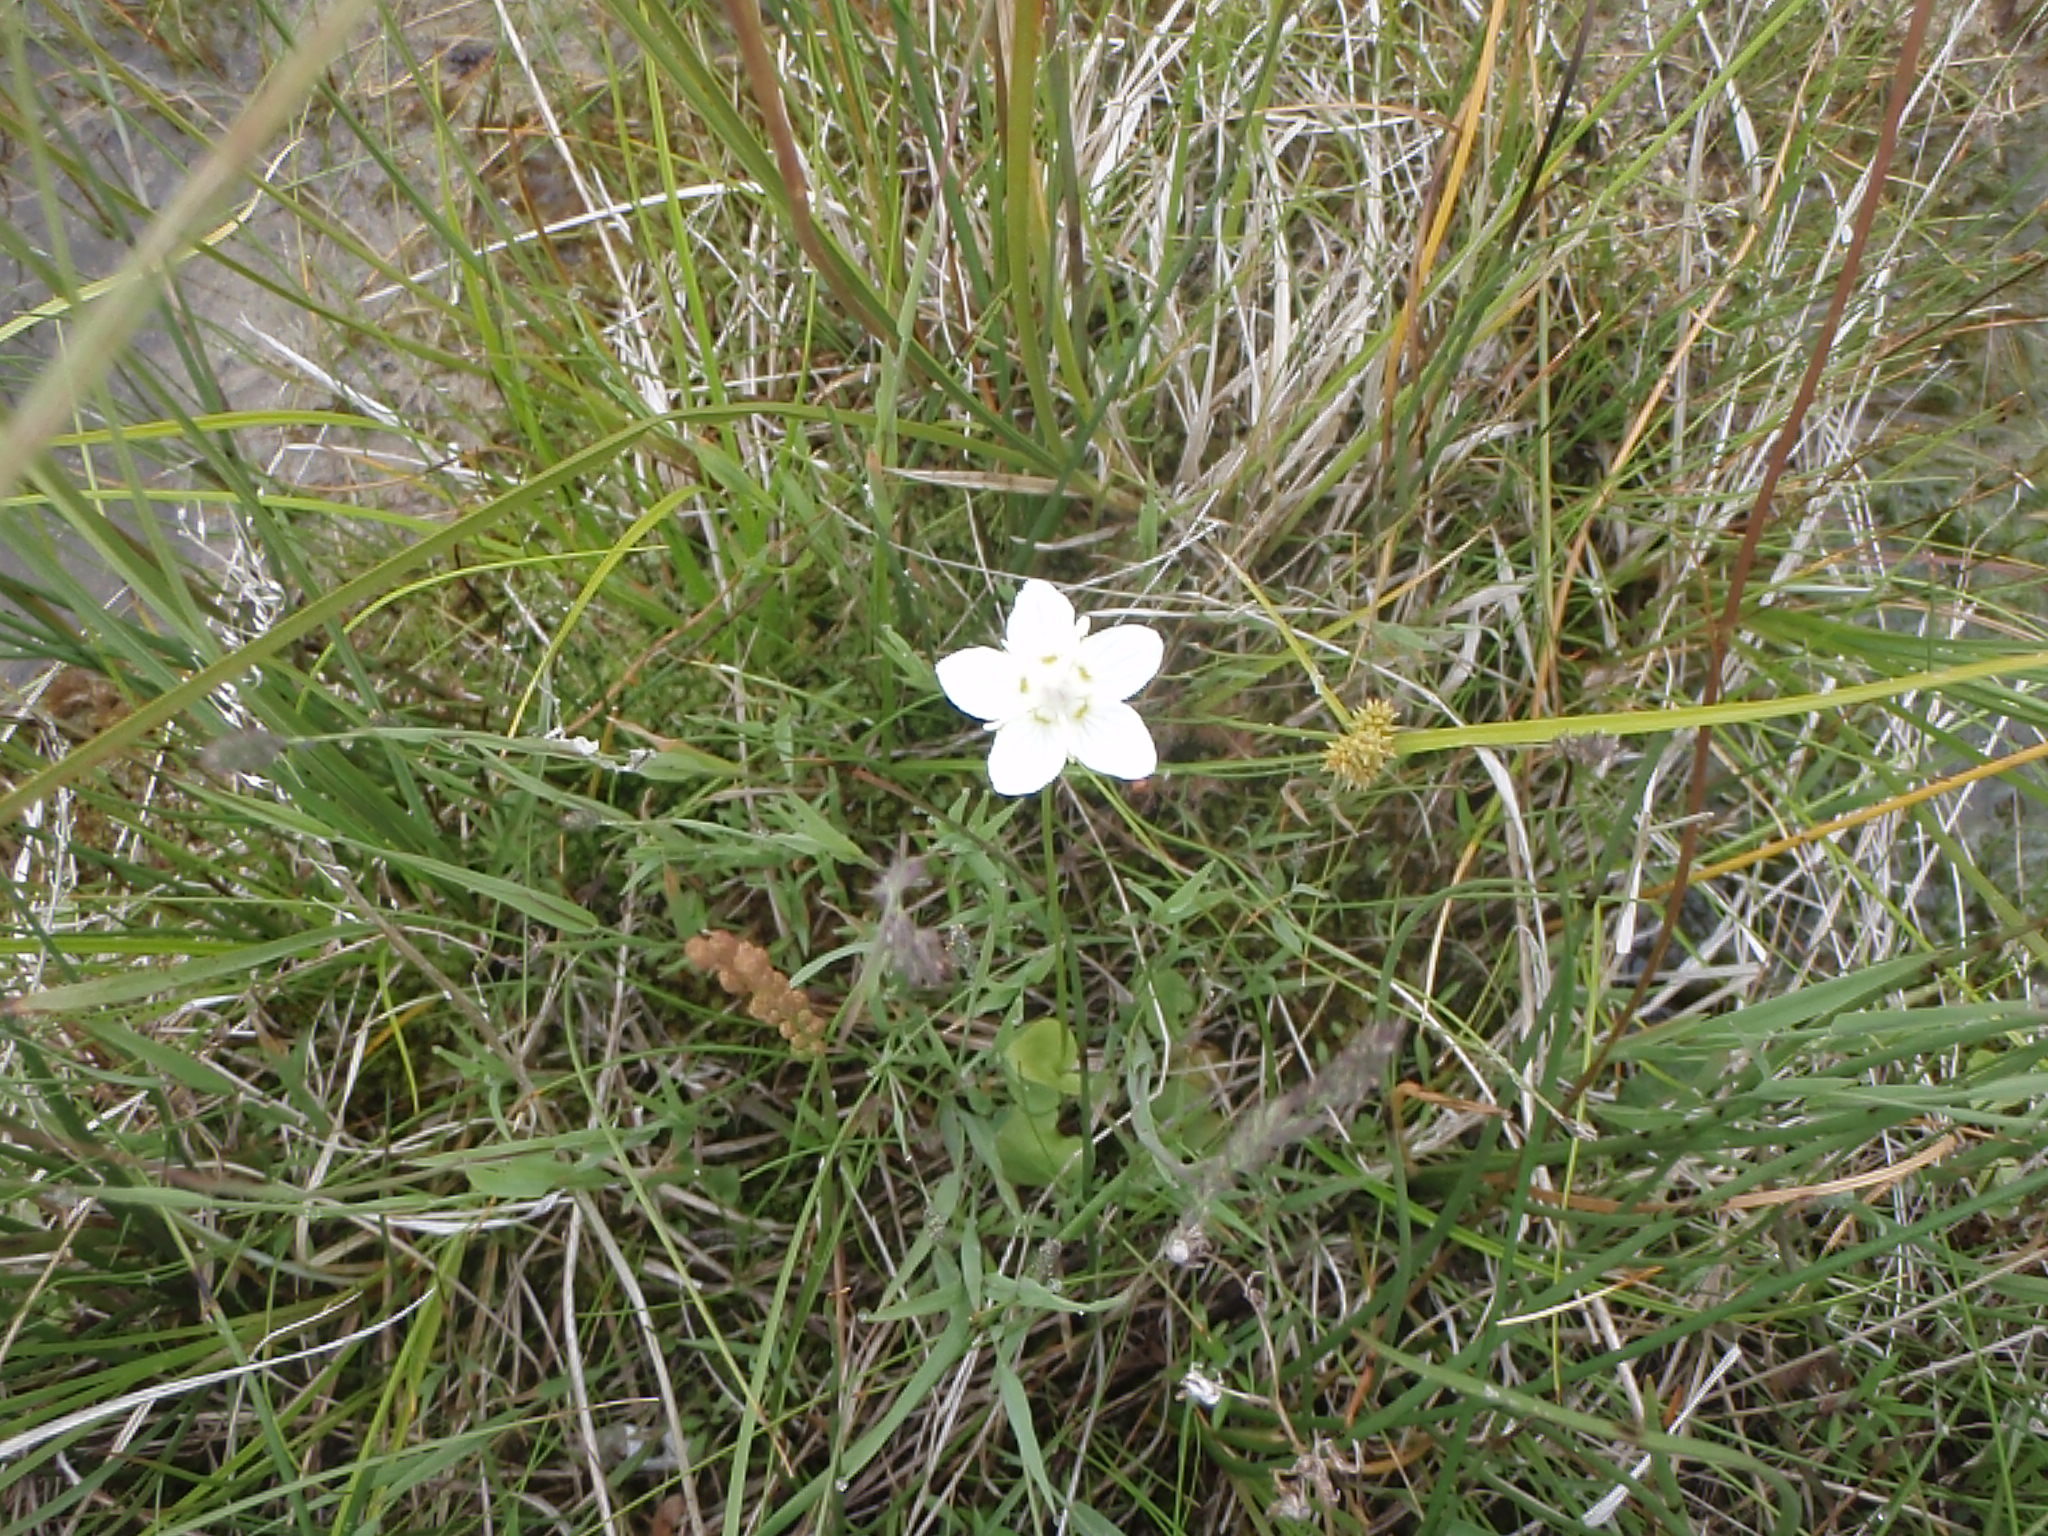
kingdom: Plantae
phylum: Tracheophyta
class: Magnoliopsida
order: Celastrales
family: Parnassiaceae
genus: Parnassia
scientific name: Parnassia palustris
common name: Grass-of-parnassus
